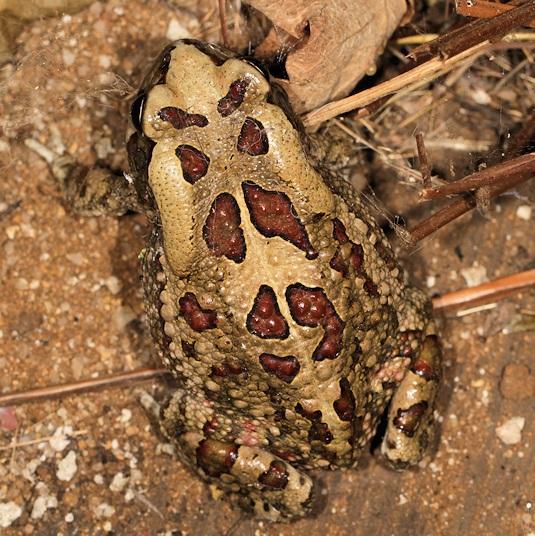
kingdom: Animalia
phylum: Chordata
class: Amphibia
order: Anura
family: Bufonidae
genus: Sclerophrys
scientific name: Sclerophrys garmani
